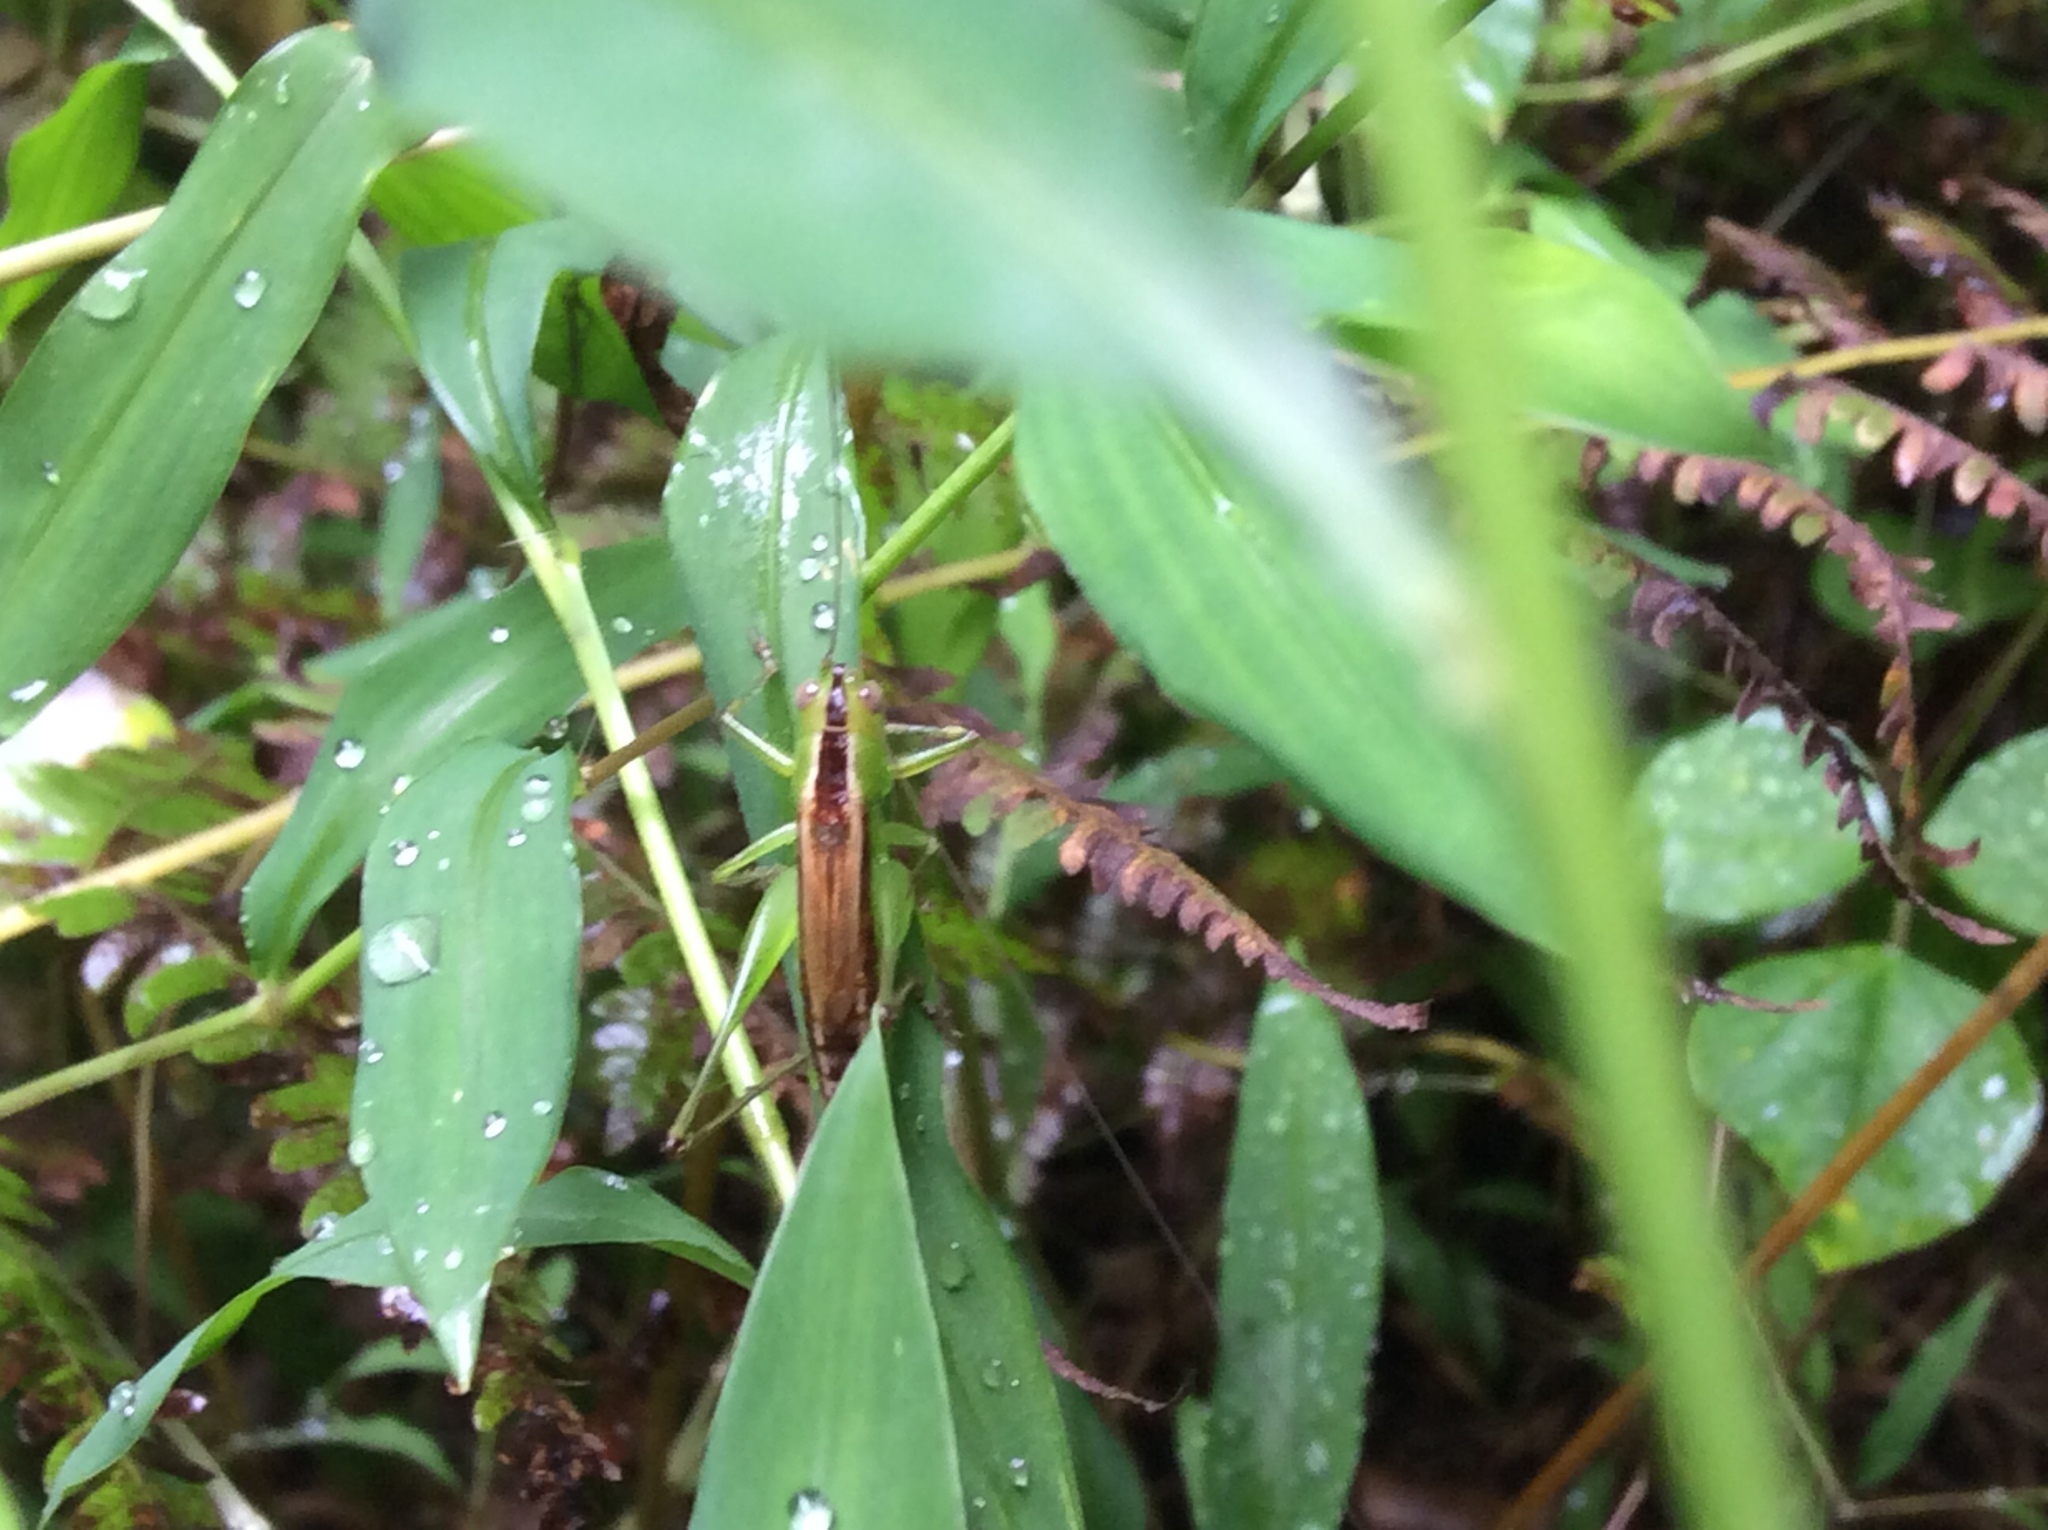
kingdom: Animalia
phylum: Arthropoda
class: Insecta
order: Orthoptera
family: Tettigoniidae
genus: Conocephalus
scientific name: Conocephalus brevipennis
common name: Short-winged meadow katydid
